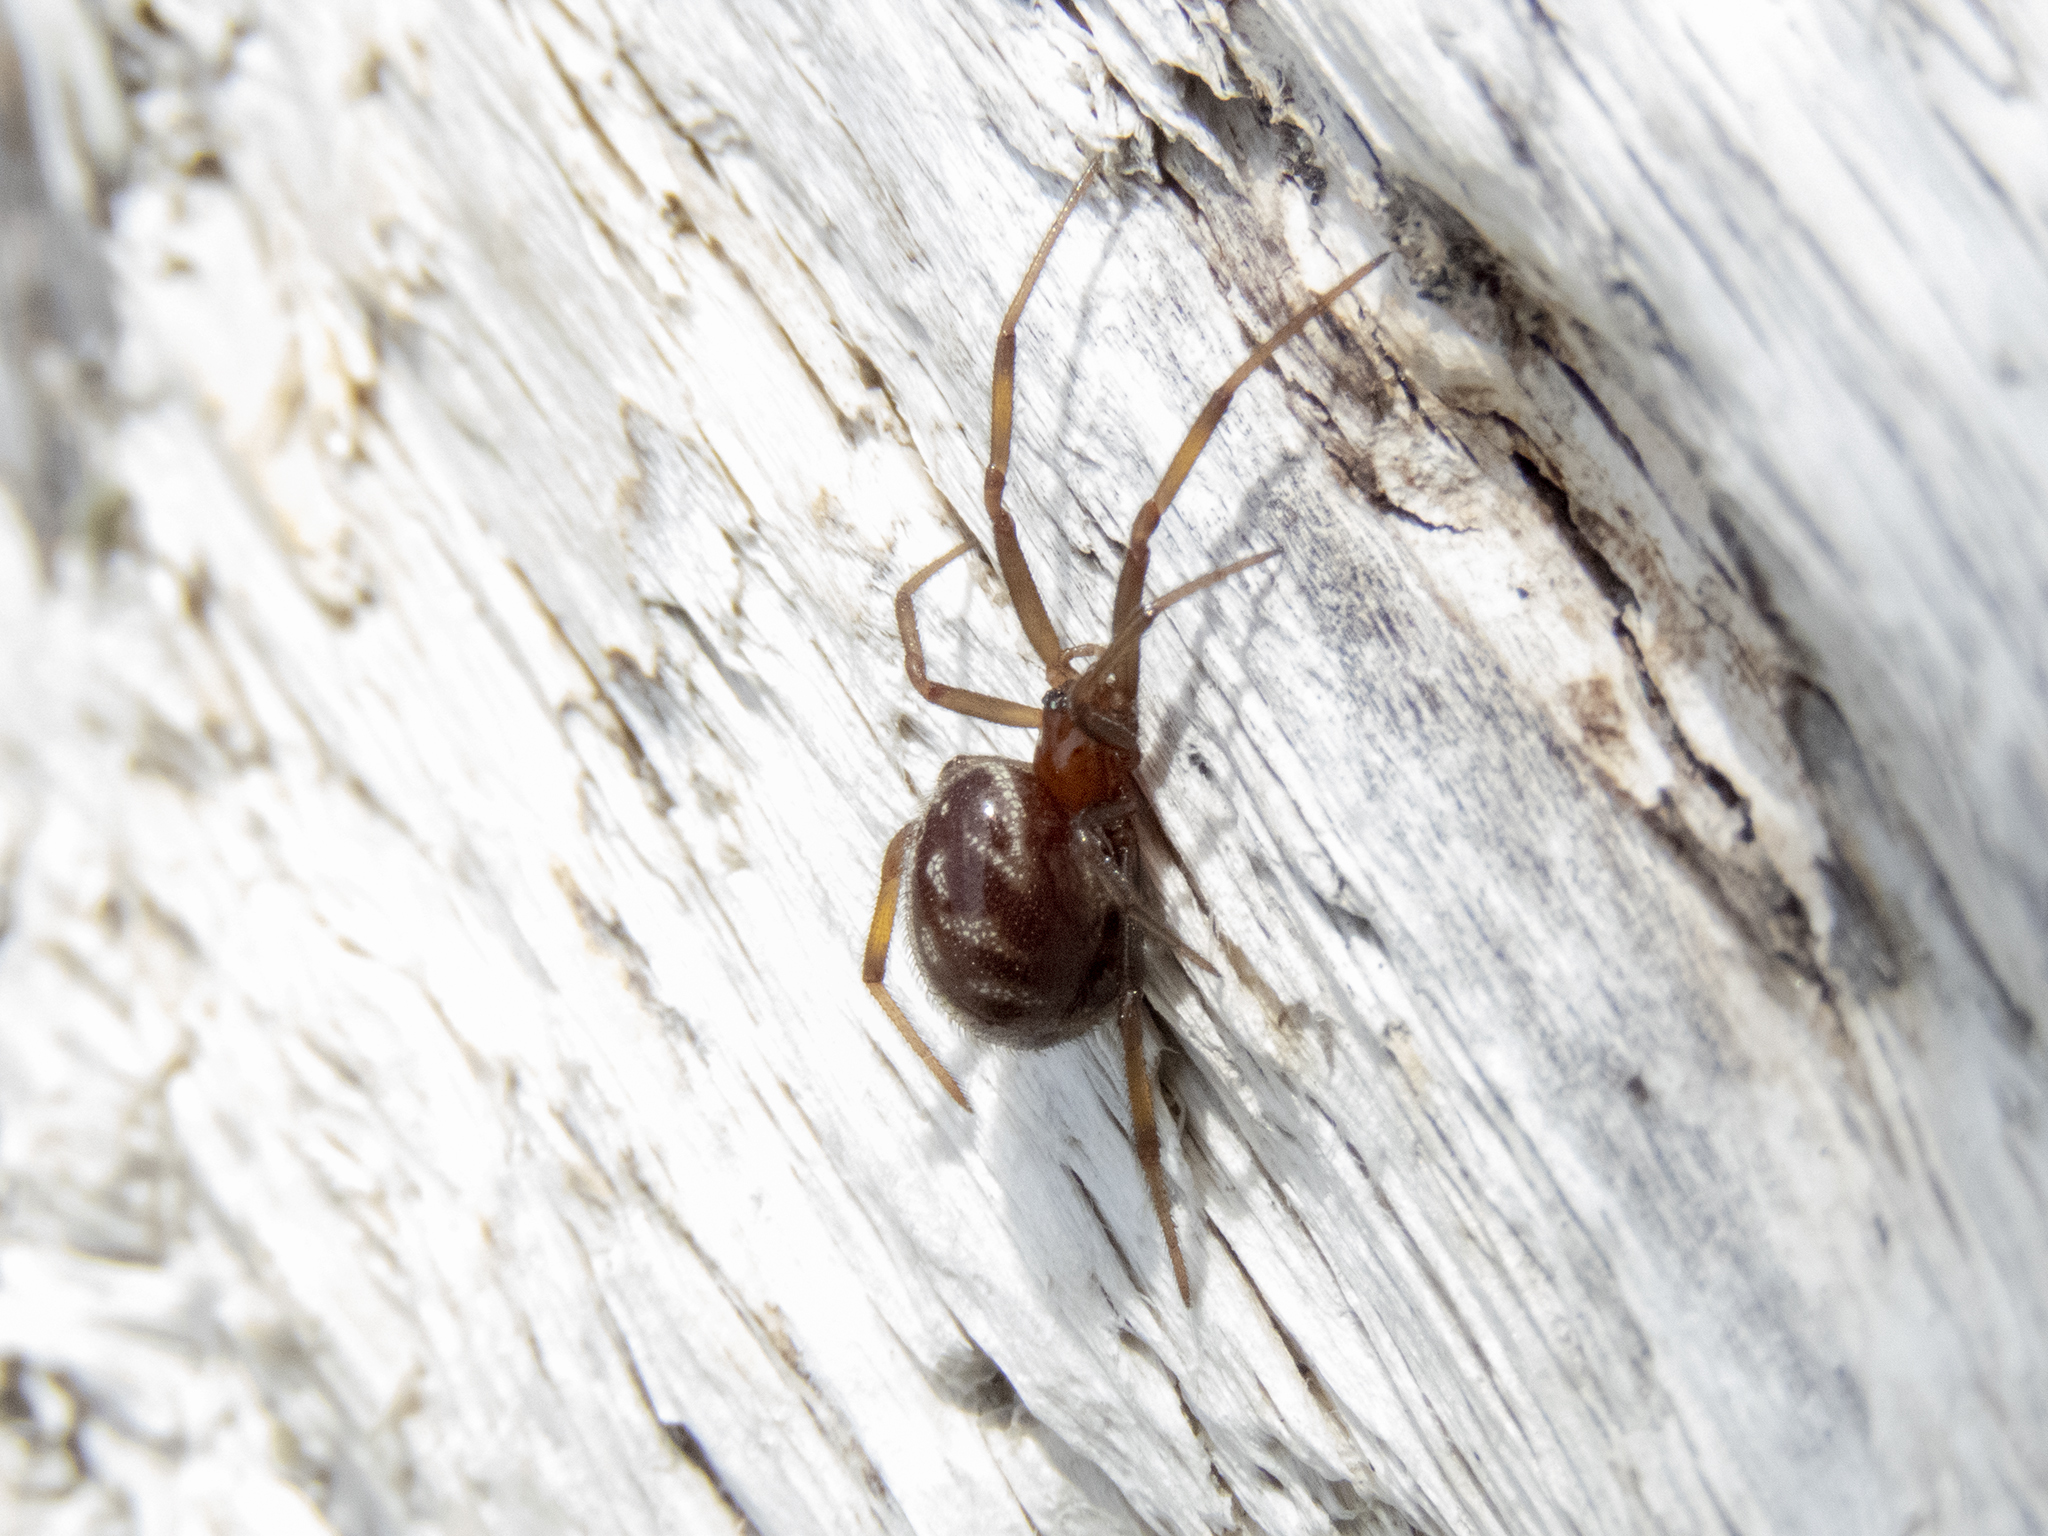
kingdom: Animalia
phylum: Arthropoda
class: Arachnida
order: Araneae
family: Theridiidae
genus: Steatoda
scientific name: Steatoda capensis
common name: Cobweb weaver
